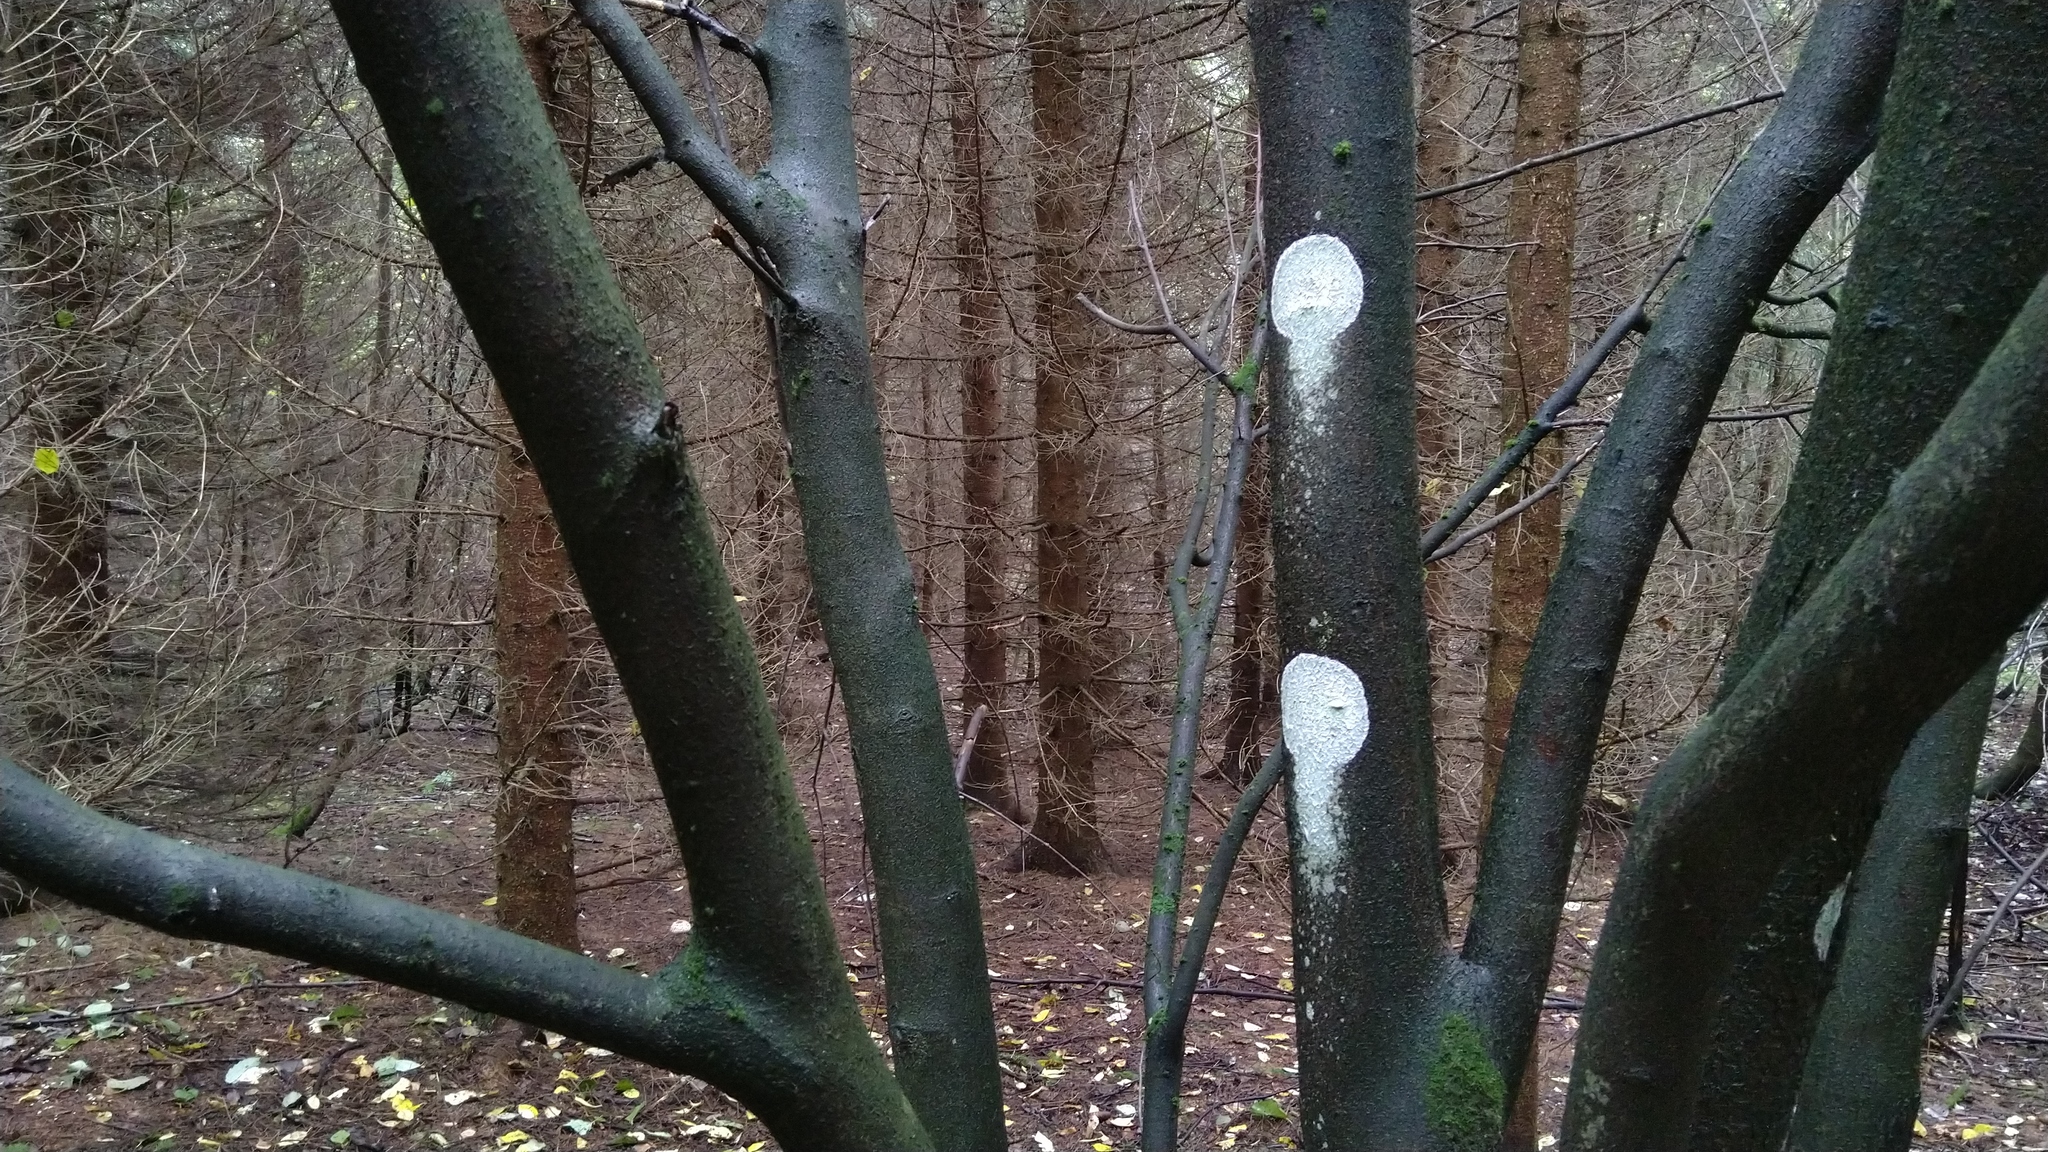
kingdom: Fungi
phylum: Ascomycota
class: Lecanoromycetes
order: Ostropales
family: Phlyctidaceae
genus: Phlyctis
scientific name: Phlyctis argena
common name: Whitewash lichen
